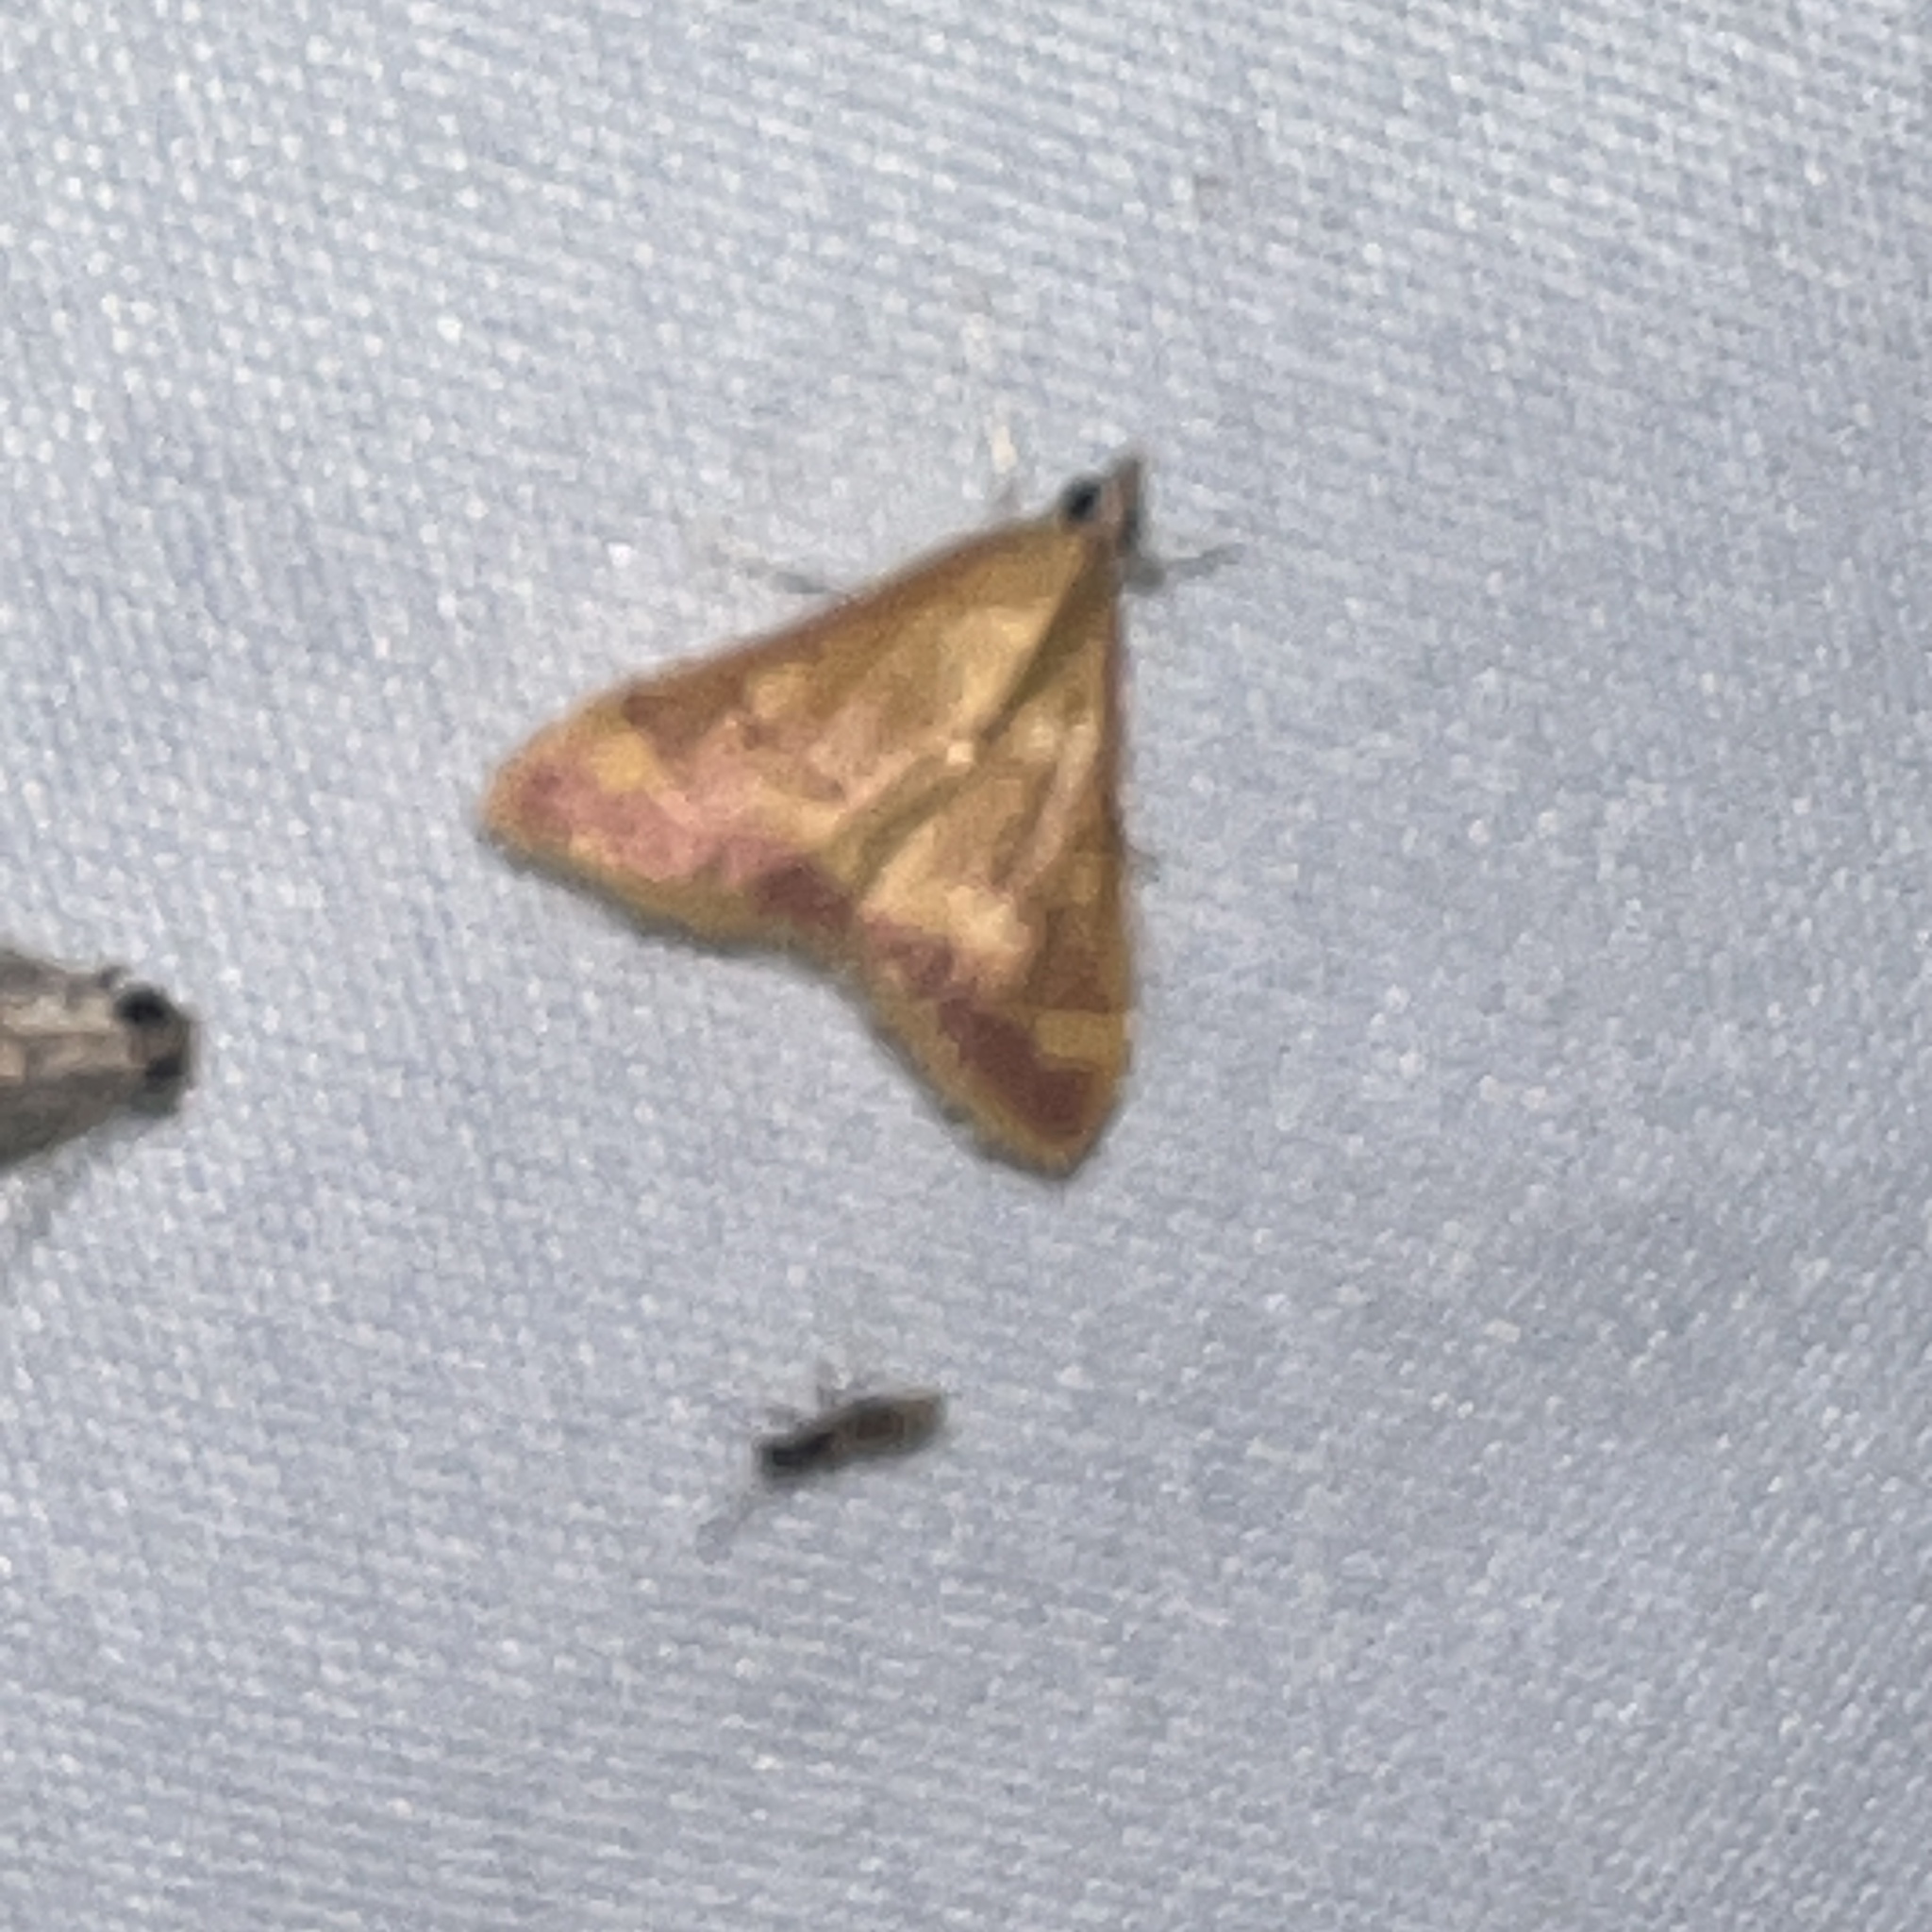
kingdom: Animalia
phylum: Arthropoda
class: Insecta
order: Lepidoptera
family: Crambidae
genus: Pyrausta
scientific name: Pyrausta pseudonythesalis
